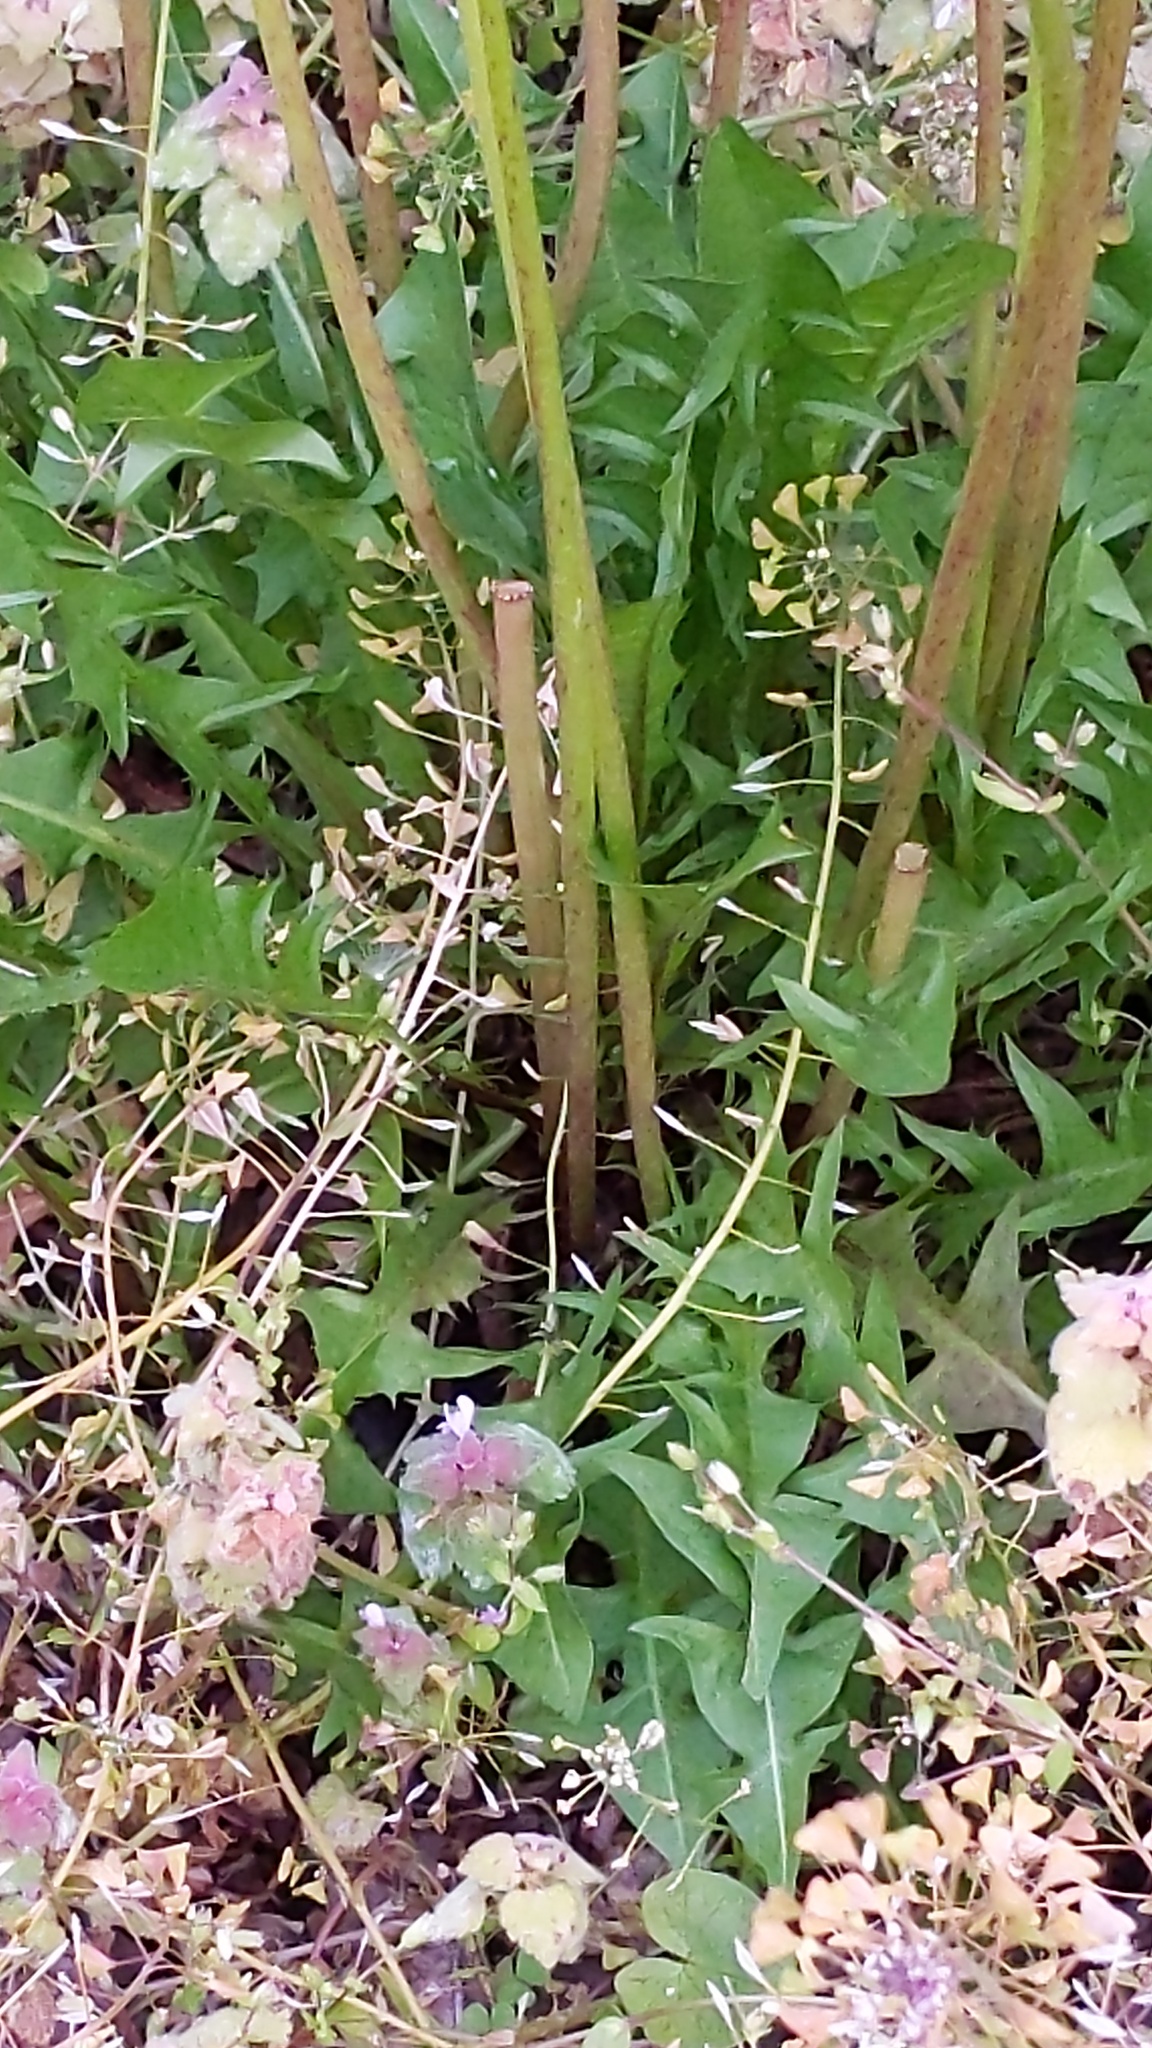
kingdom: Plantae
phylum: Tracheophyta
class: Magnoliopsida
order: Asterales
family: Asteraceae
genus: Taraxacum
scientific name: Taraxacum officinale
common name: Common dandelion
